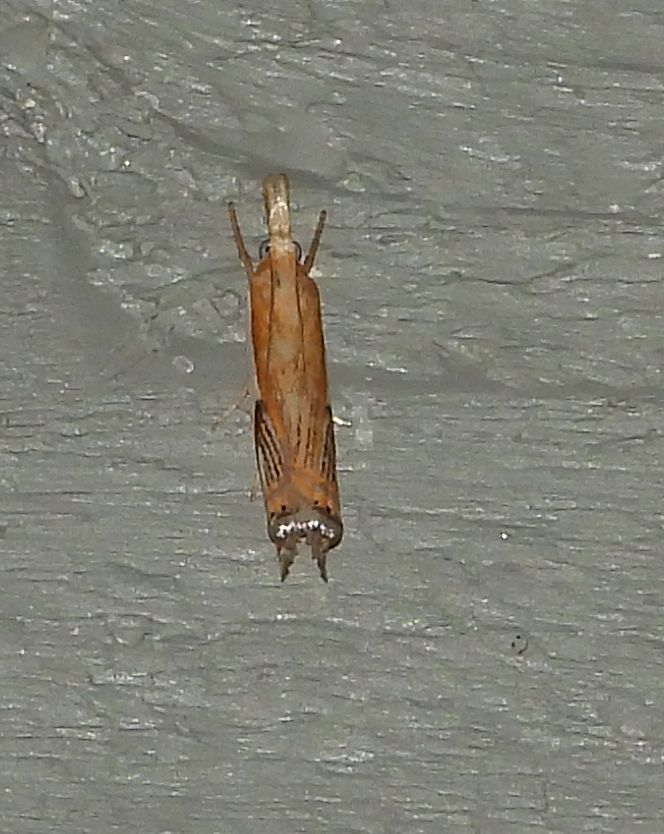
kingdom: Animalia
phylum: Arthropoda
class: Insecta
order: Lepidoptera
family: Crambidae
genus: Crambus
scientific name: Crambus
